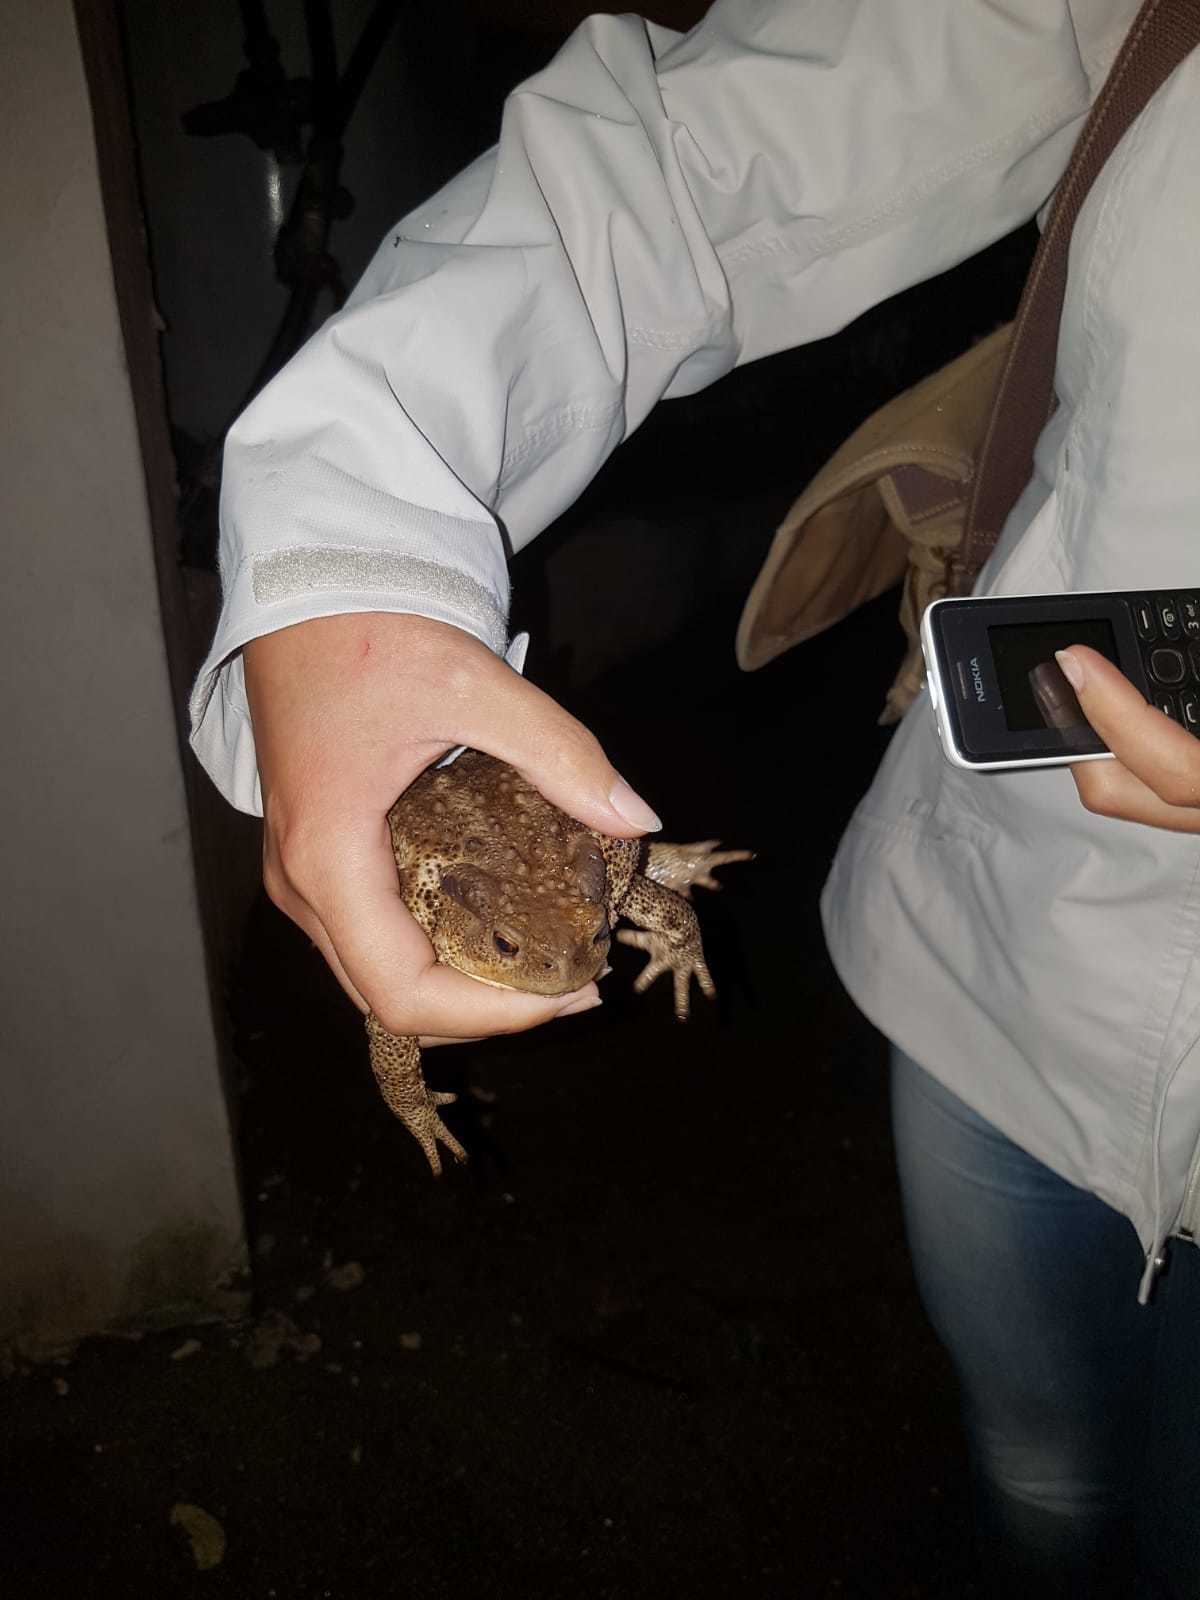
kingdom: Animalia
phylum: Chordata
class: Amphibia
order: Anura
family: Bufonidae
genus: Bufo
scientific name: Bufo bufo
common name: Common toad
